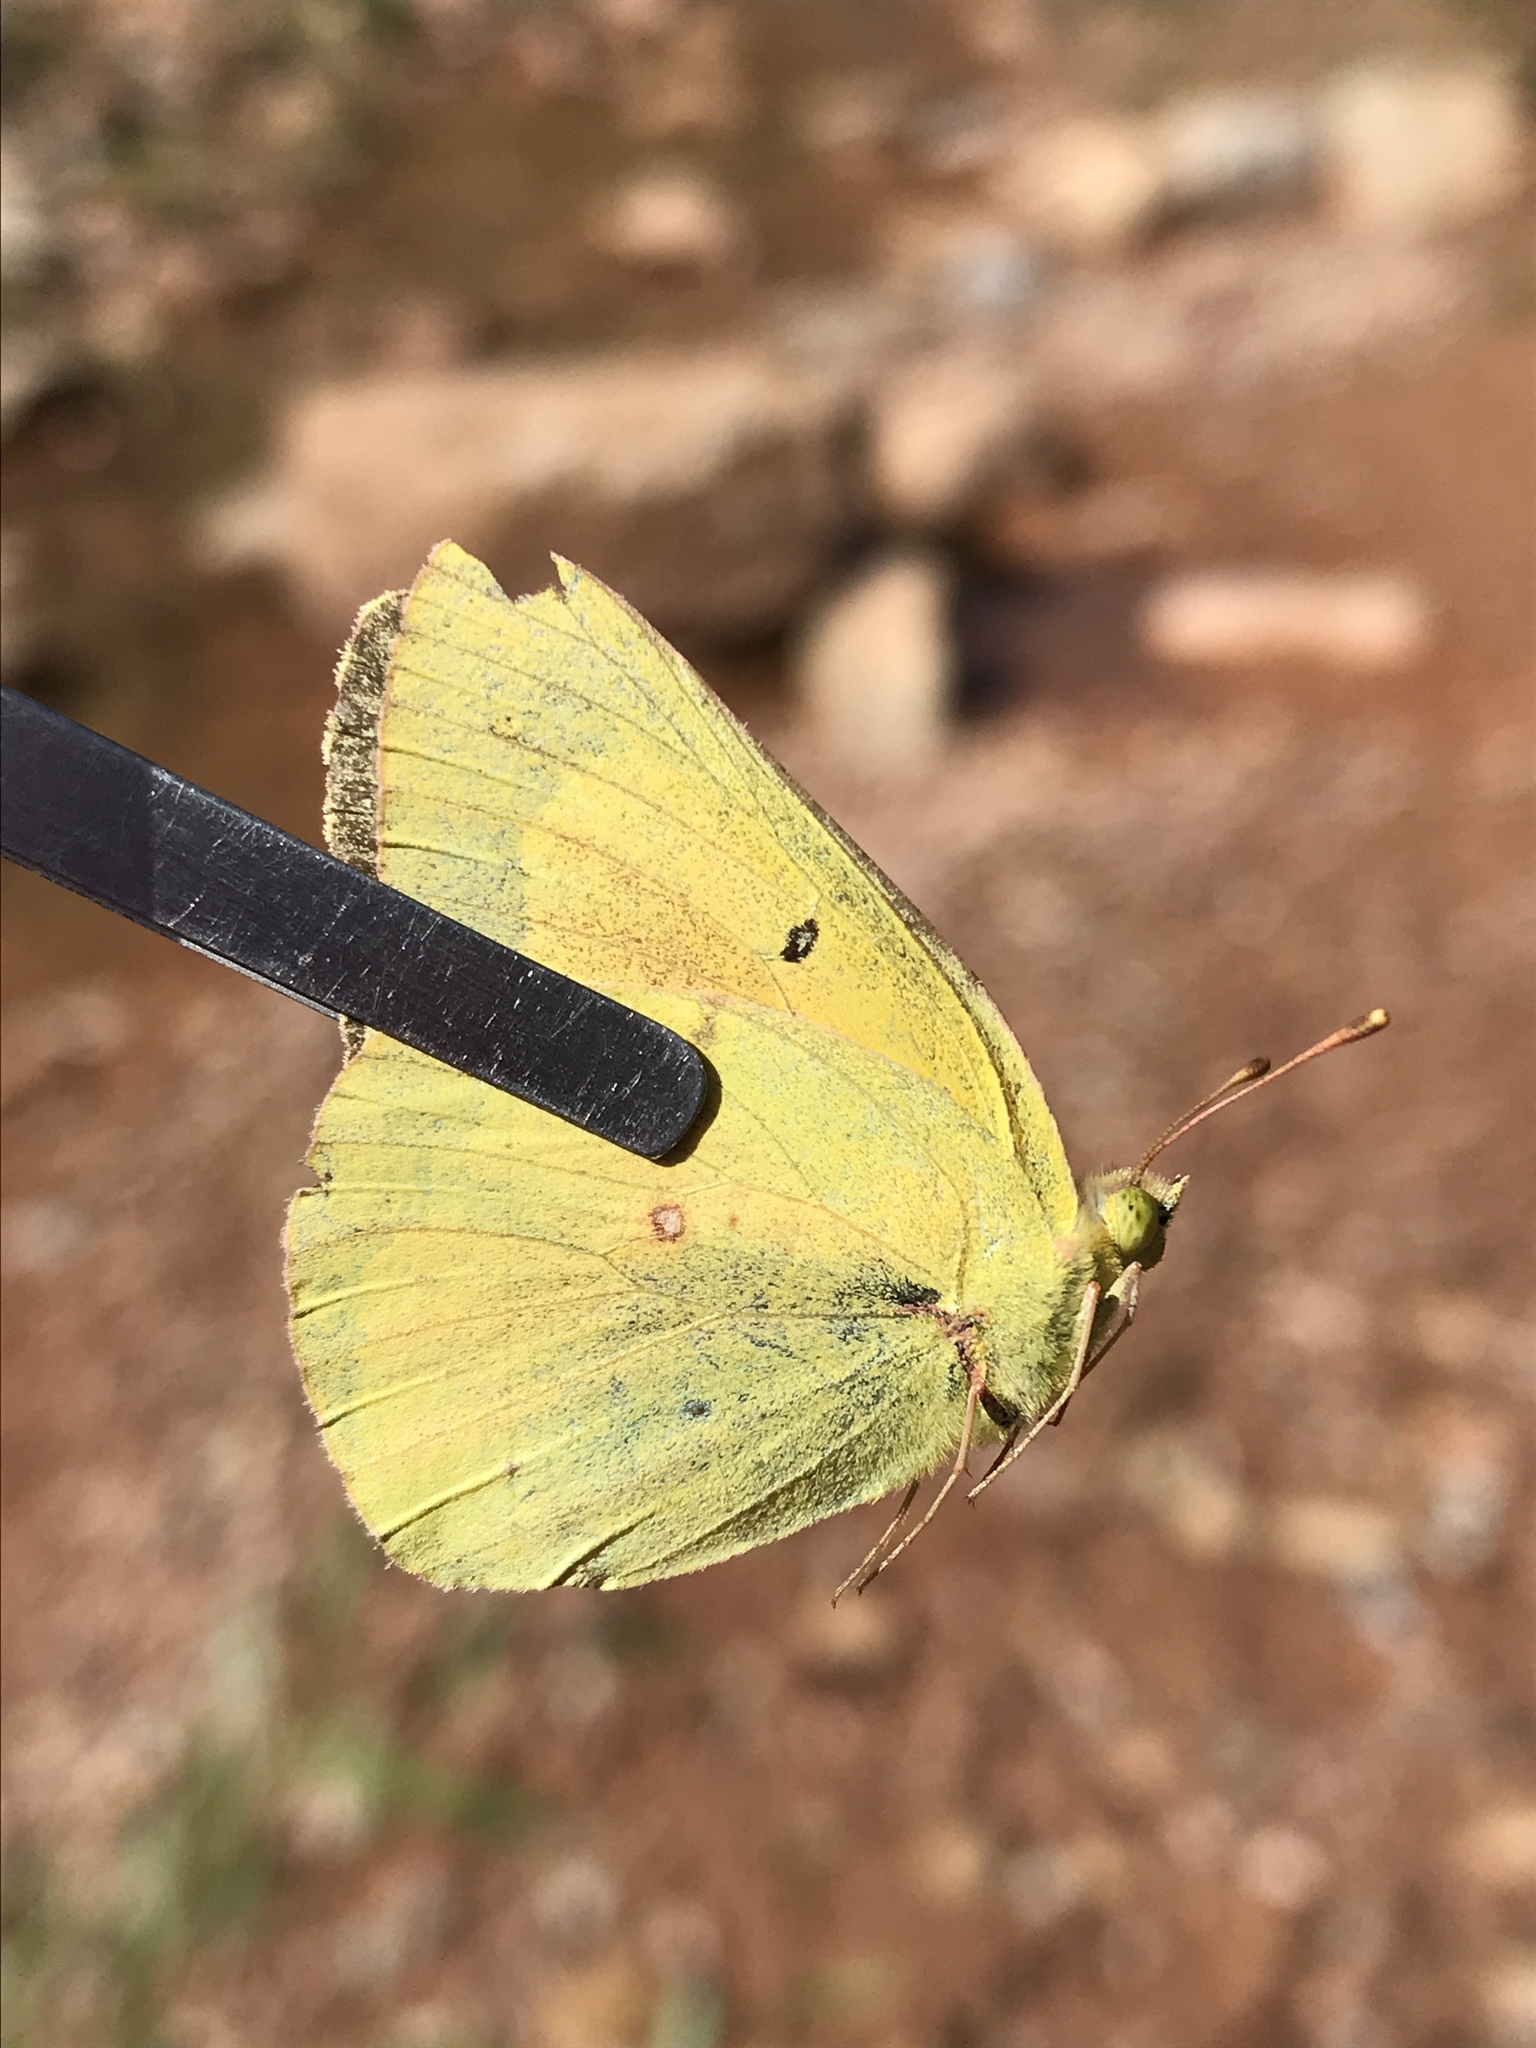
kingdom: Animalia
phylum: Arthropoda
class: Insecta
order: Lepidoptera
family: Pieridae
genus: Colias
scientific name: Colias eurytheme
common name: Alfalfa butterfly
